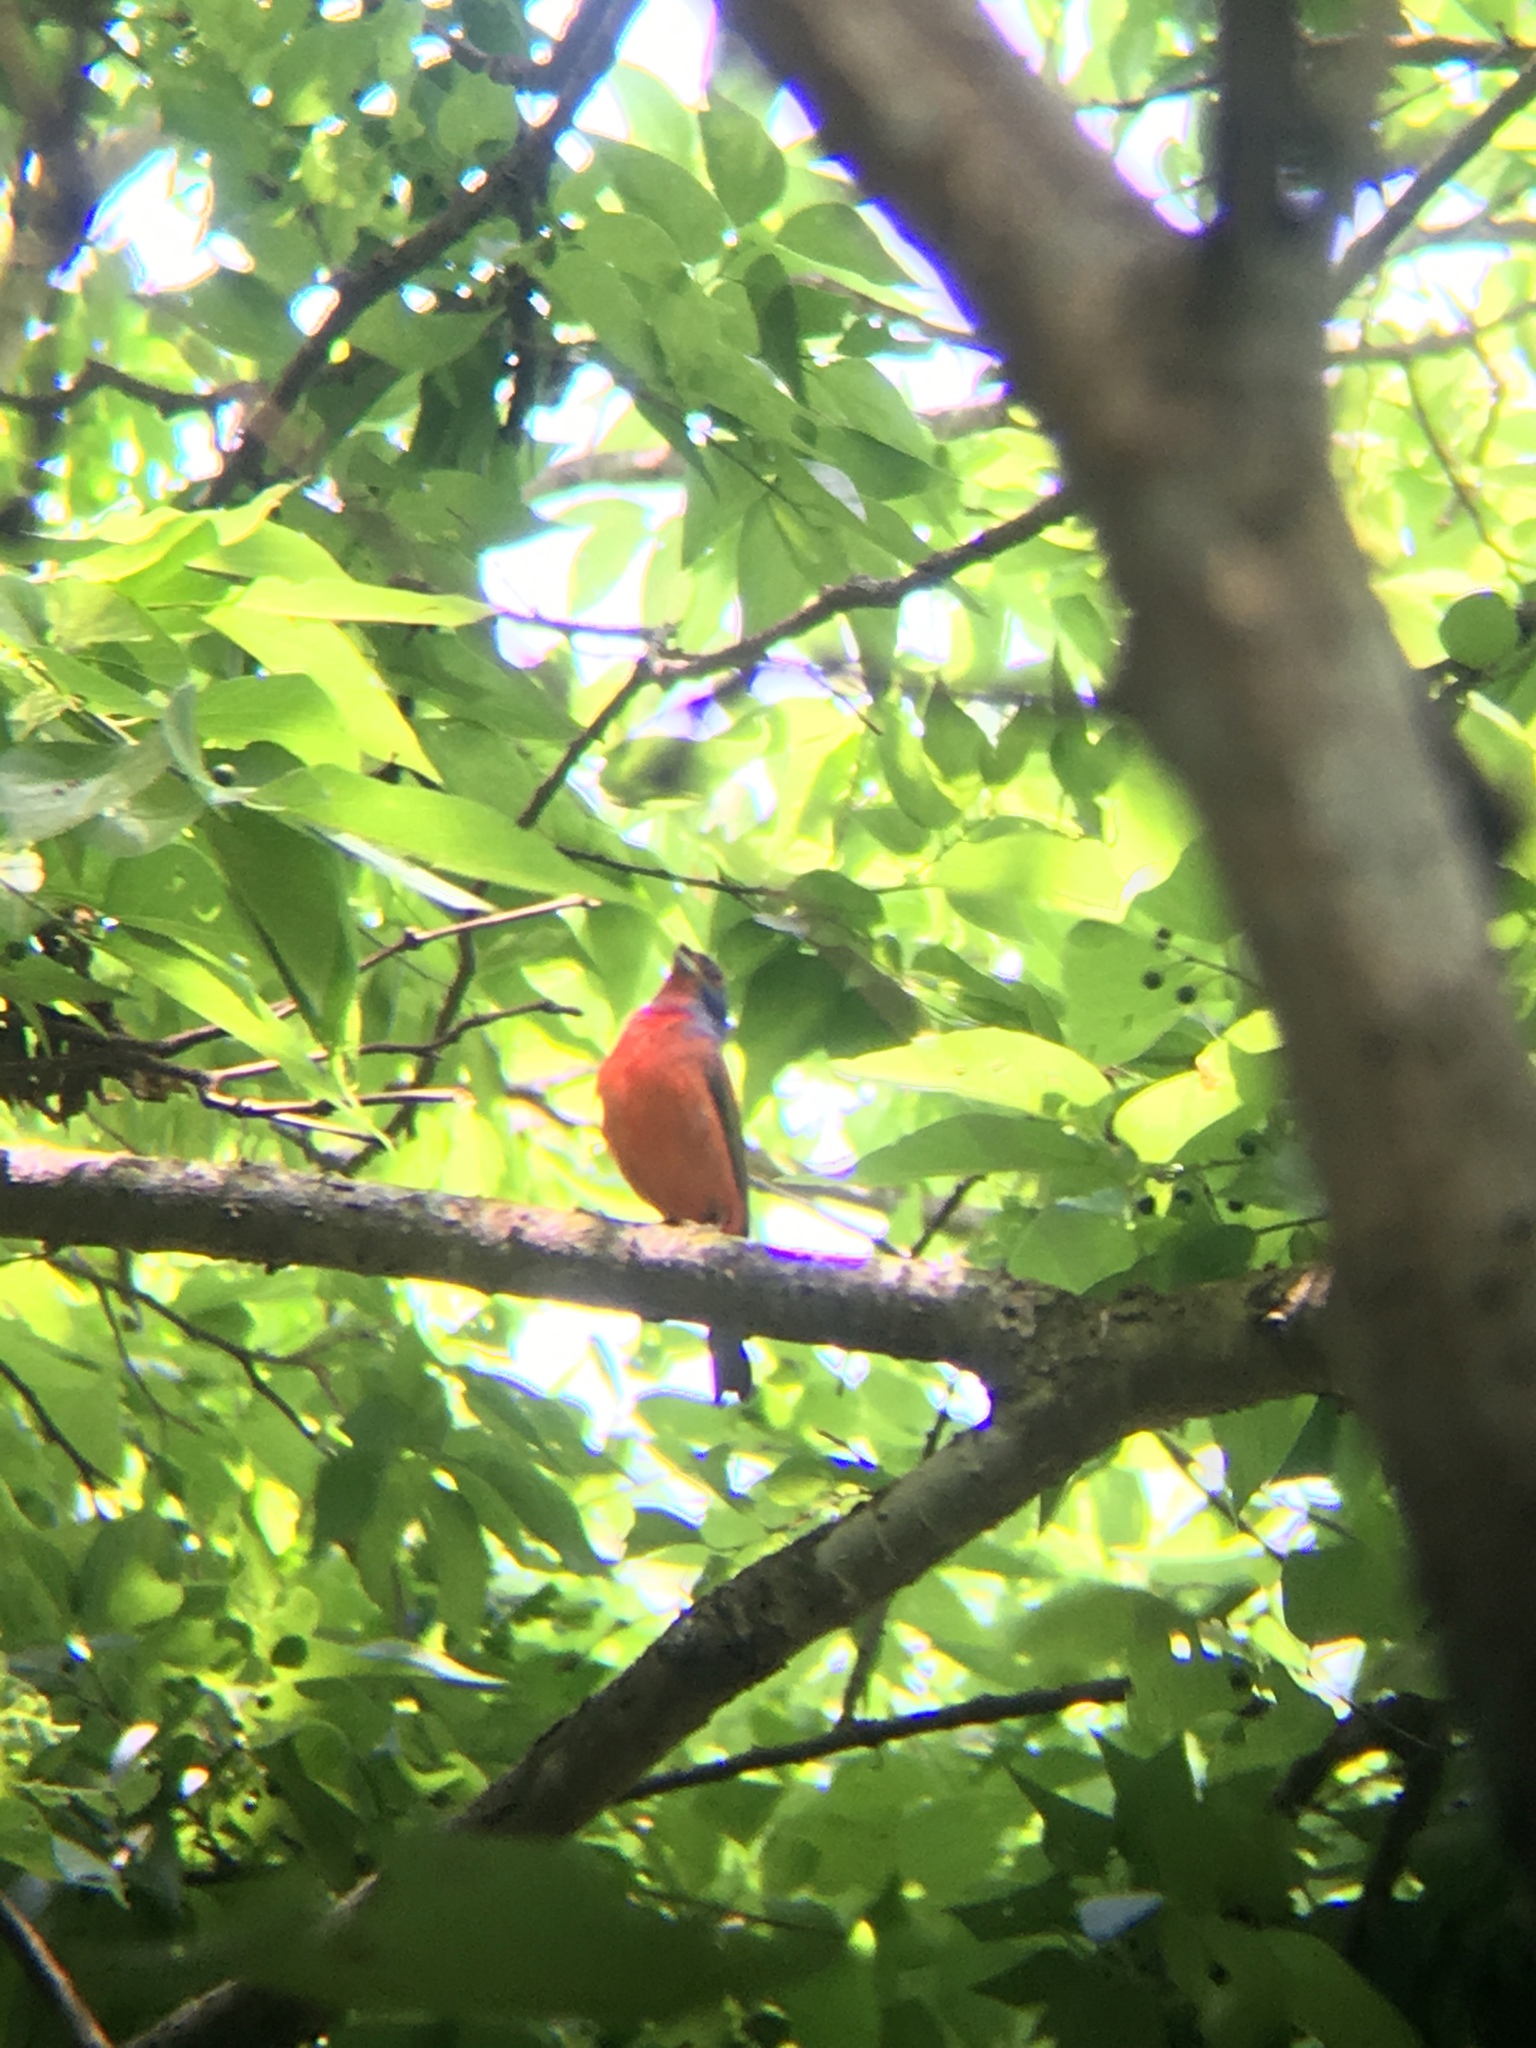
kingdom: Animalia
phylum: Chordata
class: Aves
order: Passeriformes
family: Cardinalidae
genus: Passerina
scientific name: Passerina ciris
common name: Painted bunting
